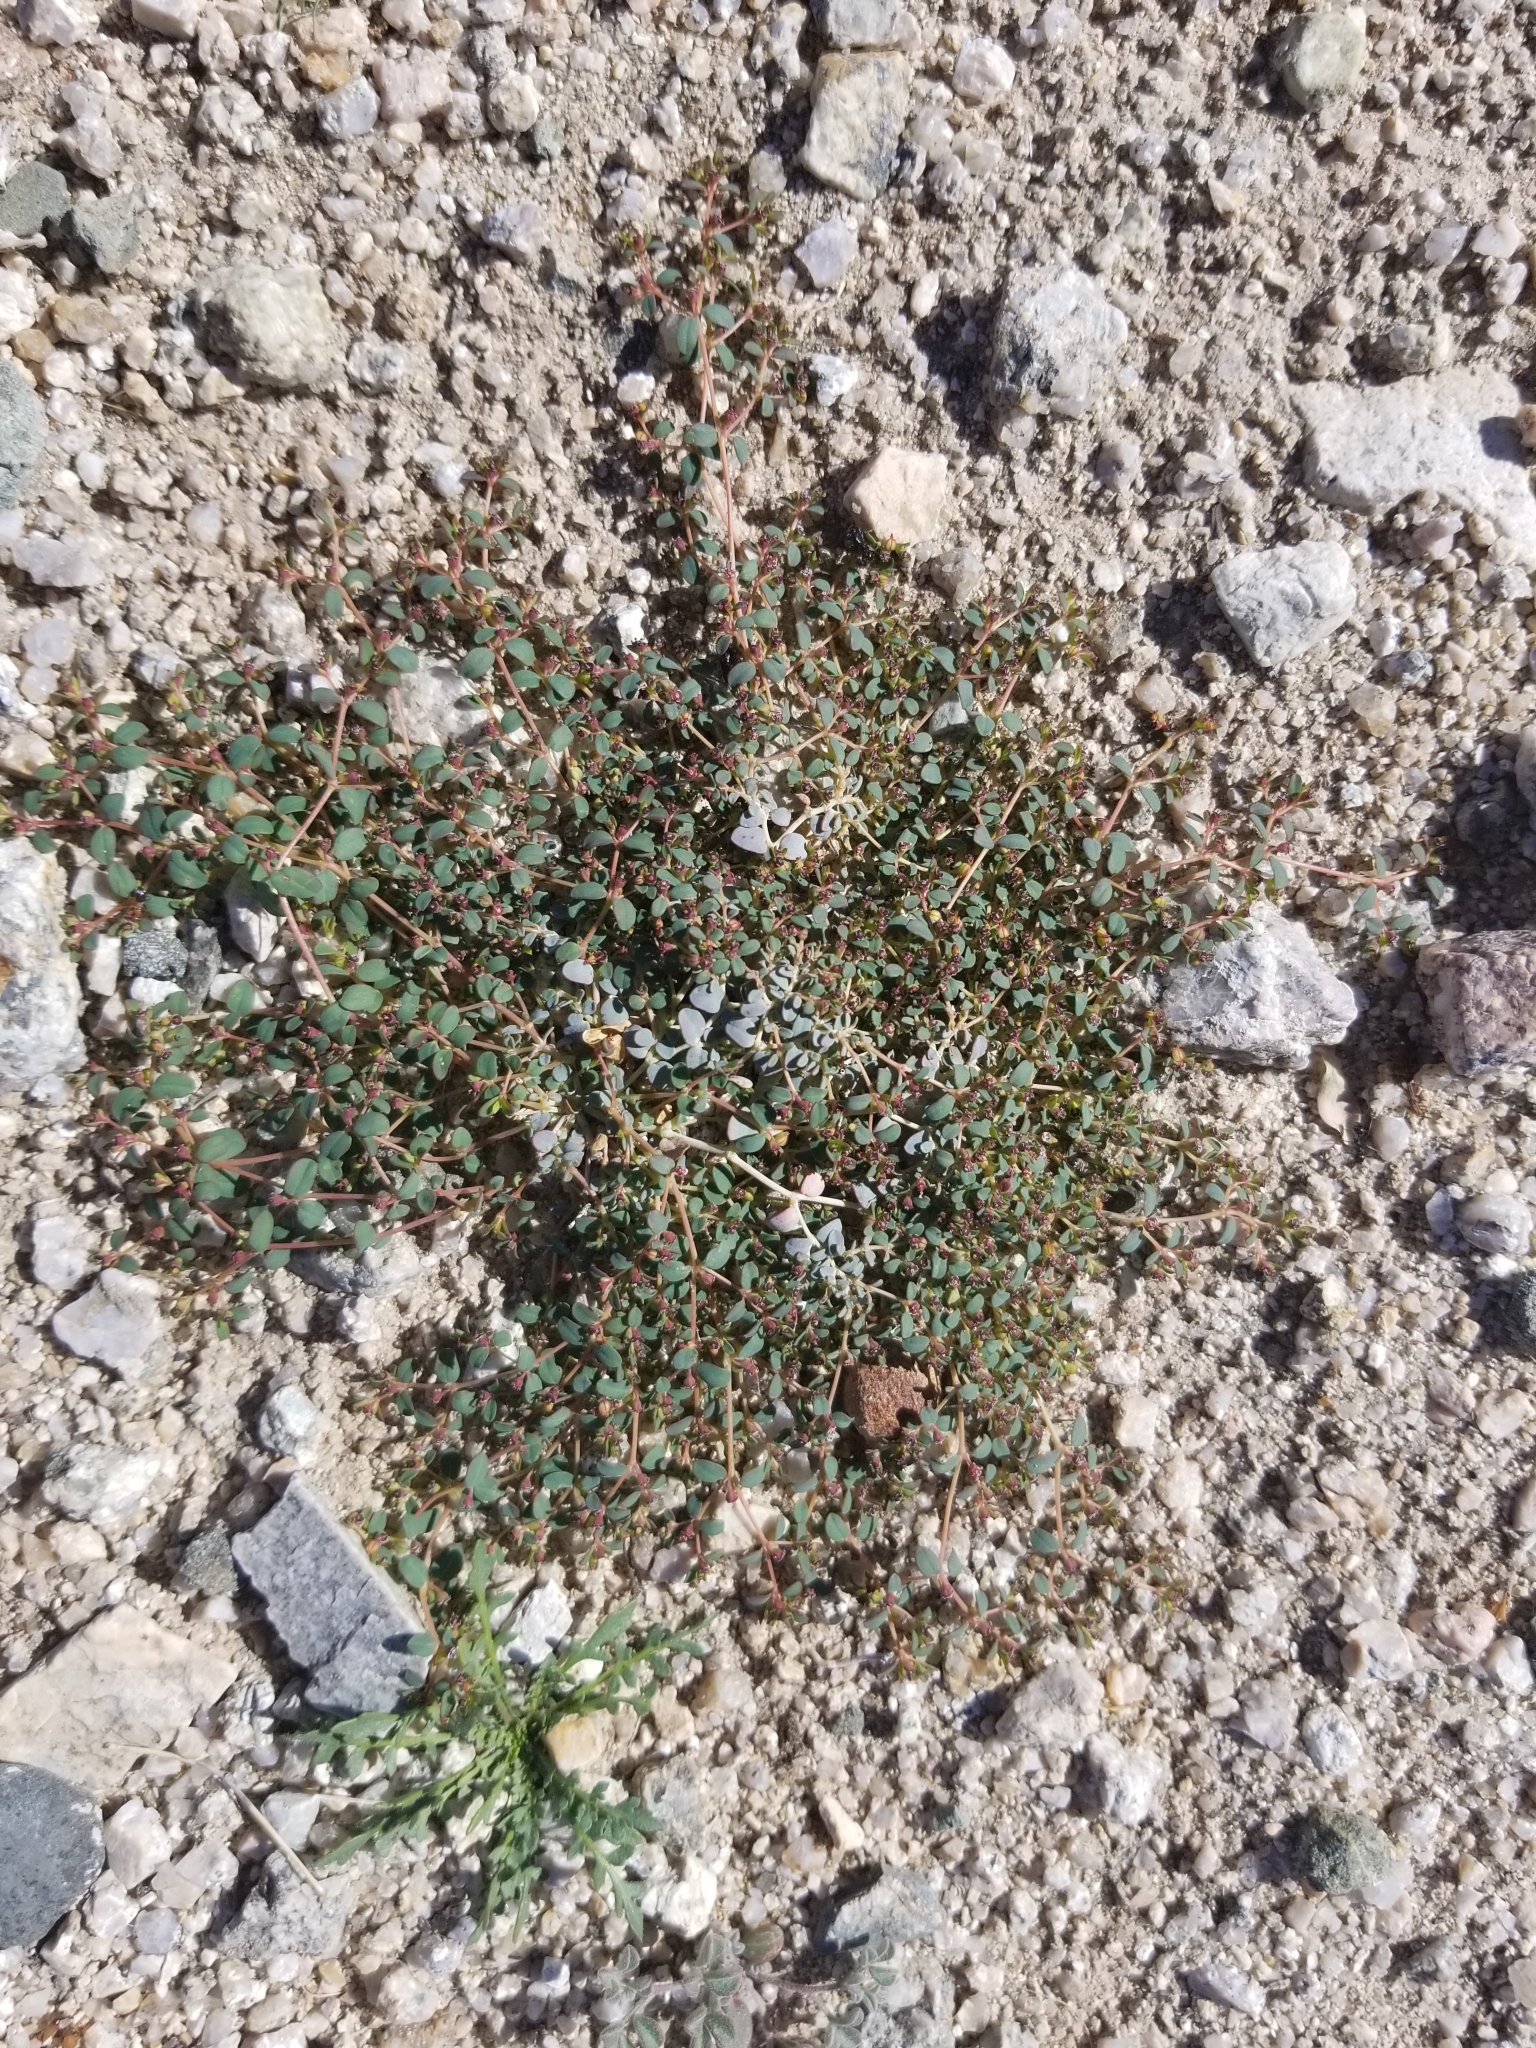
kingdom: Plantae
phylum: Tracheophyta
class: Magnoliopsida
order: Malpighiales
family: Euphorbiaceae
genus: Euphorbia
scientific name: Euphorbia polycarpa
